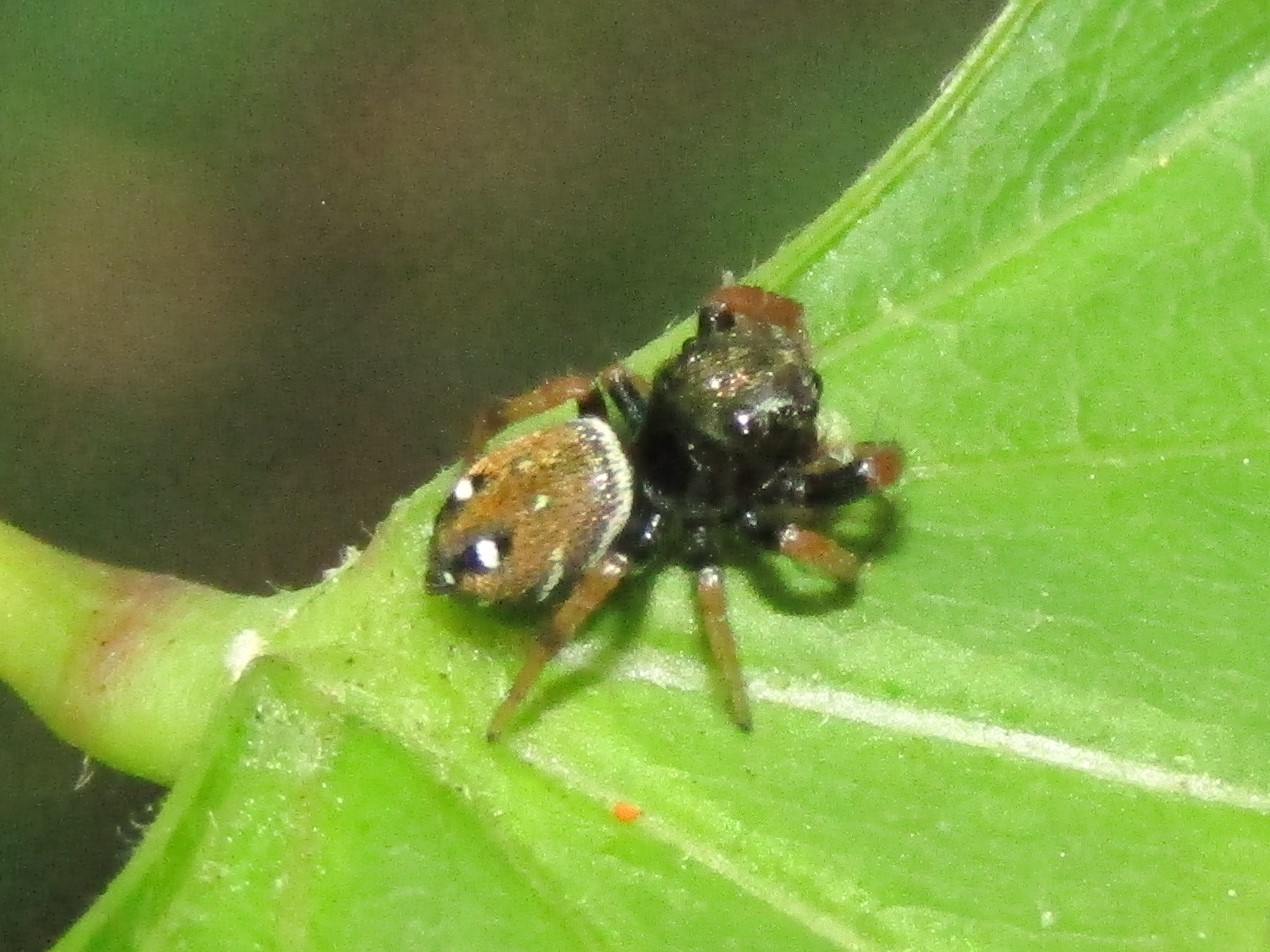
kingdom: Animalia
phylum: Arthropoda
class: Arachnida
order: Araneae
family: Salticidae
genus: Phidippus
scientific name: Phidippus whitmani
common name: Whitman's jumping spider
